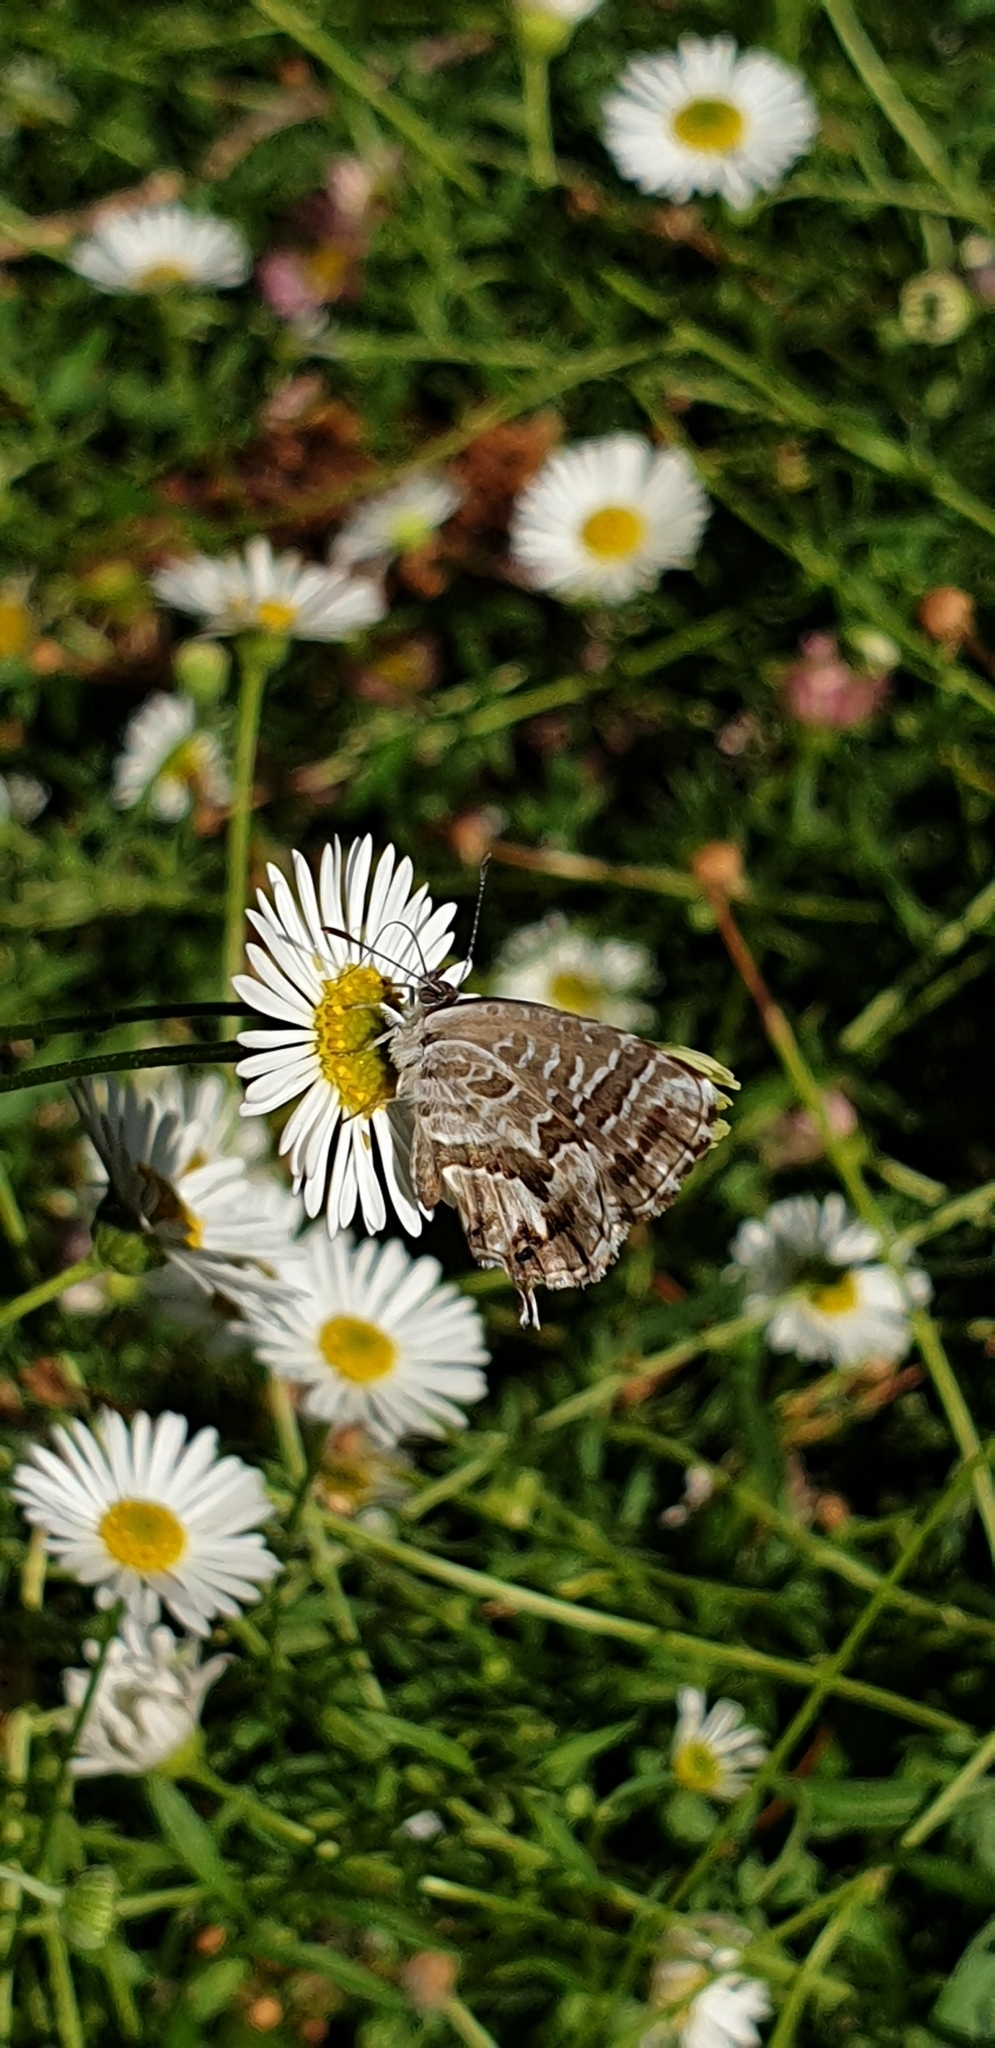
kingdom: Animalia
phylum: Arthropoda
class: Insecta
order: Lepidoptera
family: Lycaenidae
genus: Cacyreus
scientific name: Cacyreus marshalli
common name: Geranium bronze
